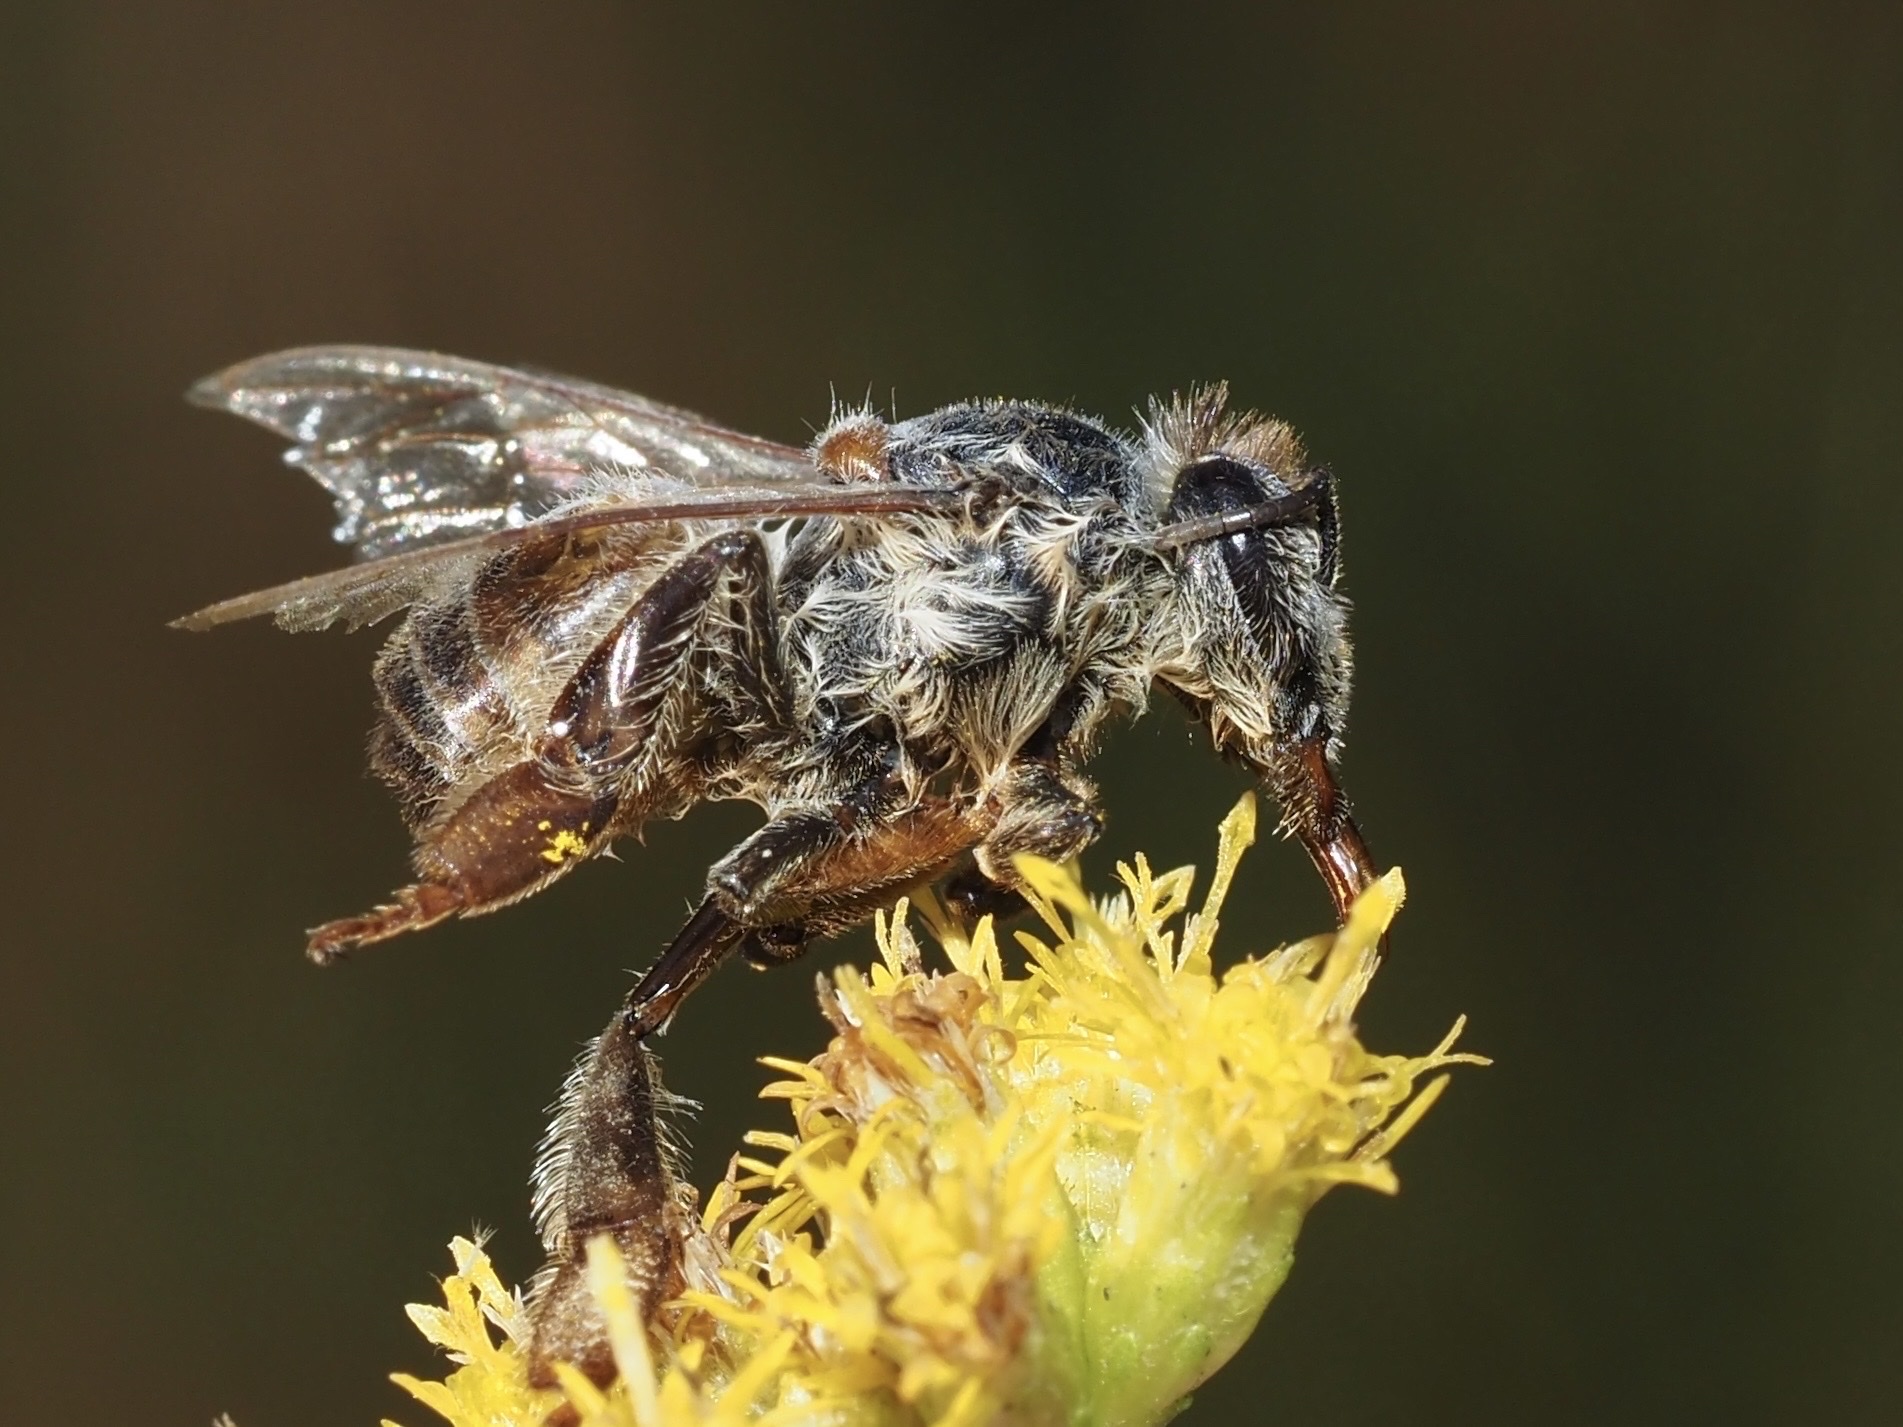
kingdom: Animalia
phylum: Arthropoda
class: Insecta
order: Hymenoptera
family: Apidae
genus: Apis
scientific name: Apis mellifera
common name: Honey bee
